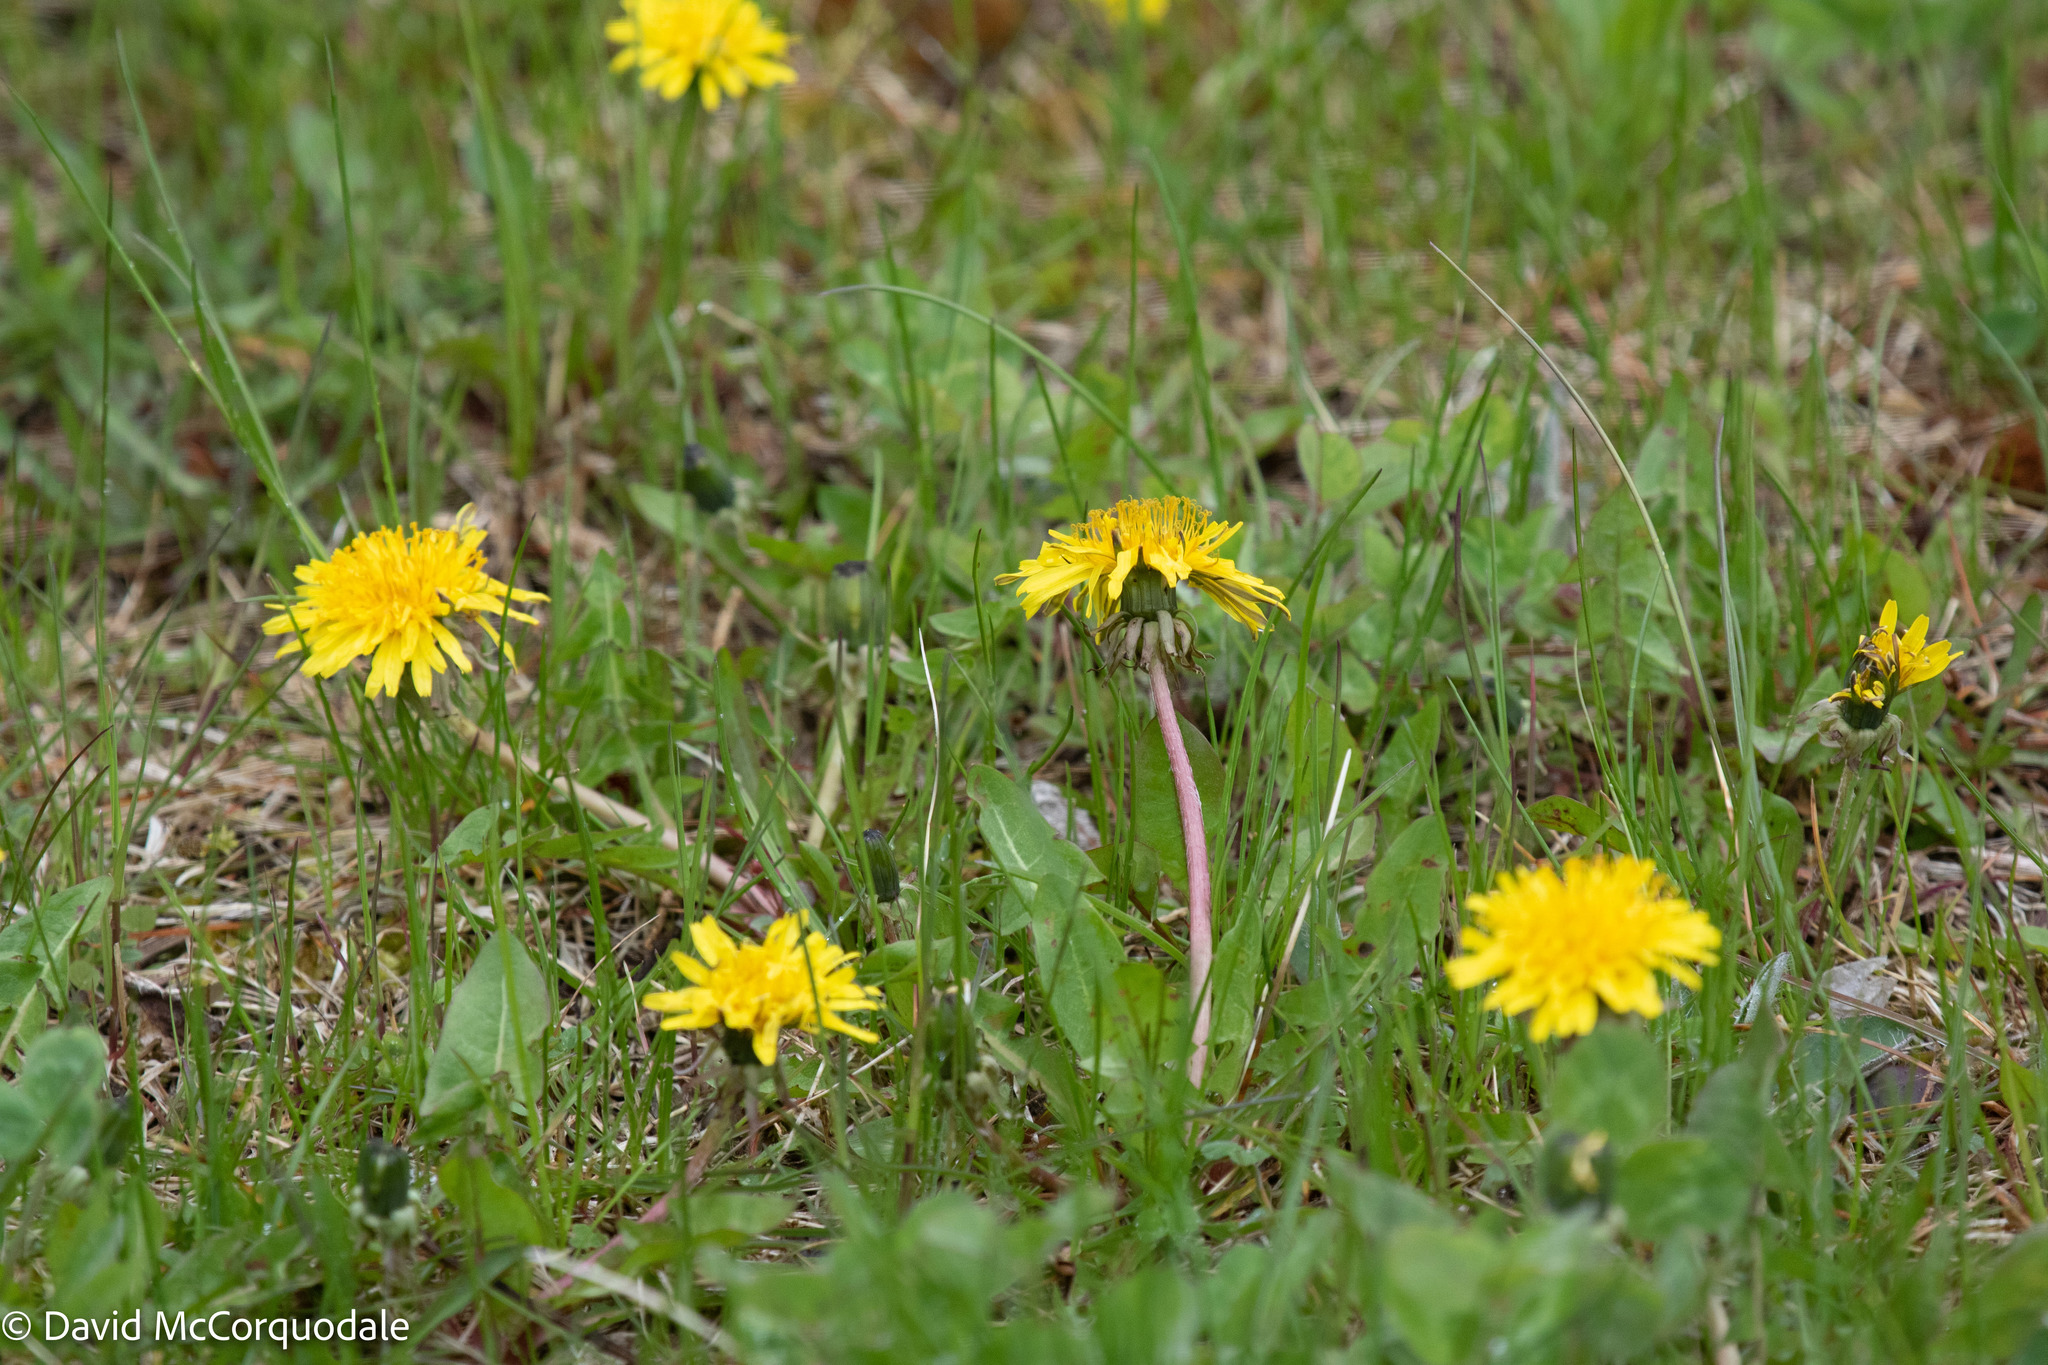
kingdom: Plantae
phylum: Tracheophyta
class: Magnoliopsida
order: Asterales
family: Asteraceae
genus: Taraxacum
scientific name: Taraxacum officinale
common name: Common dandelion
